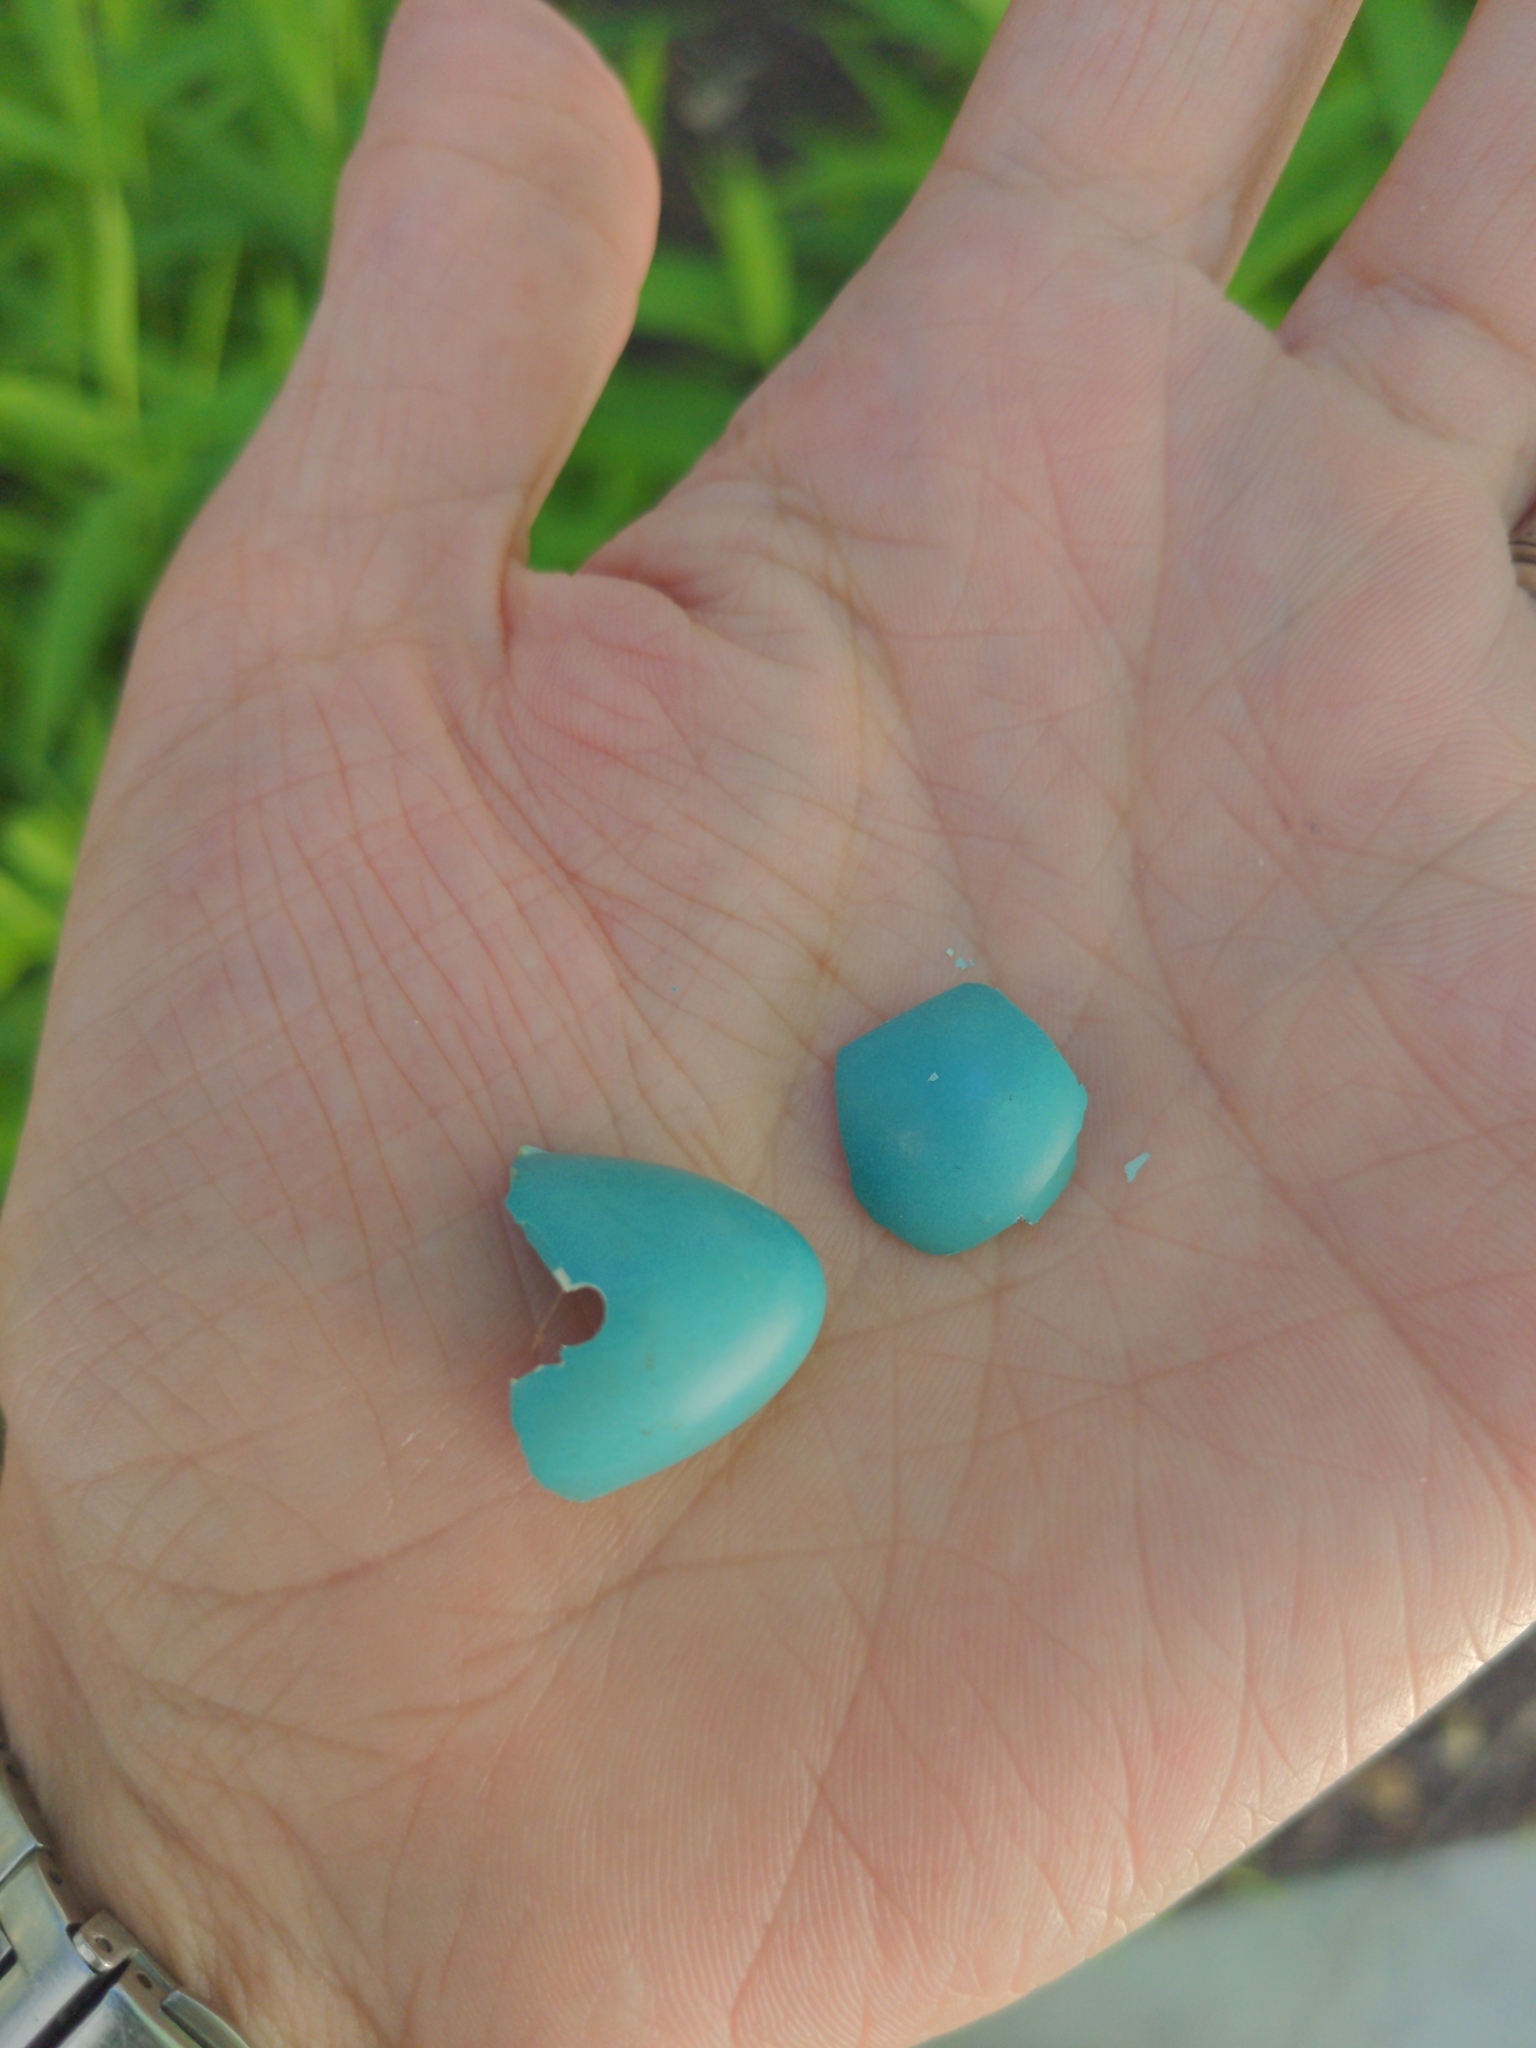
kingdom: Animalia
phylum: Chordata
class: Aves
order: Passeriformes
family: Turdidae
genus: Turdus
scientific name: Turdus migratorius
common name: American robin
